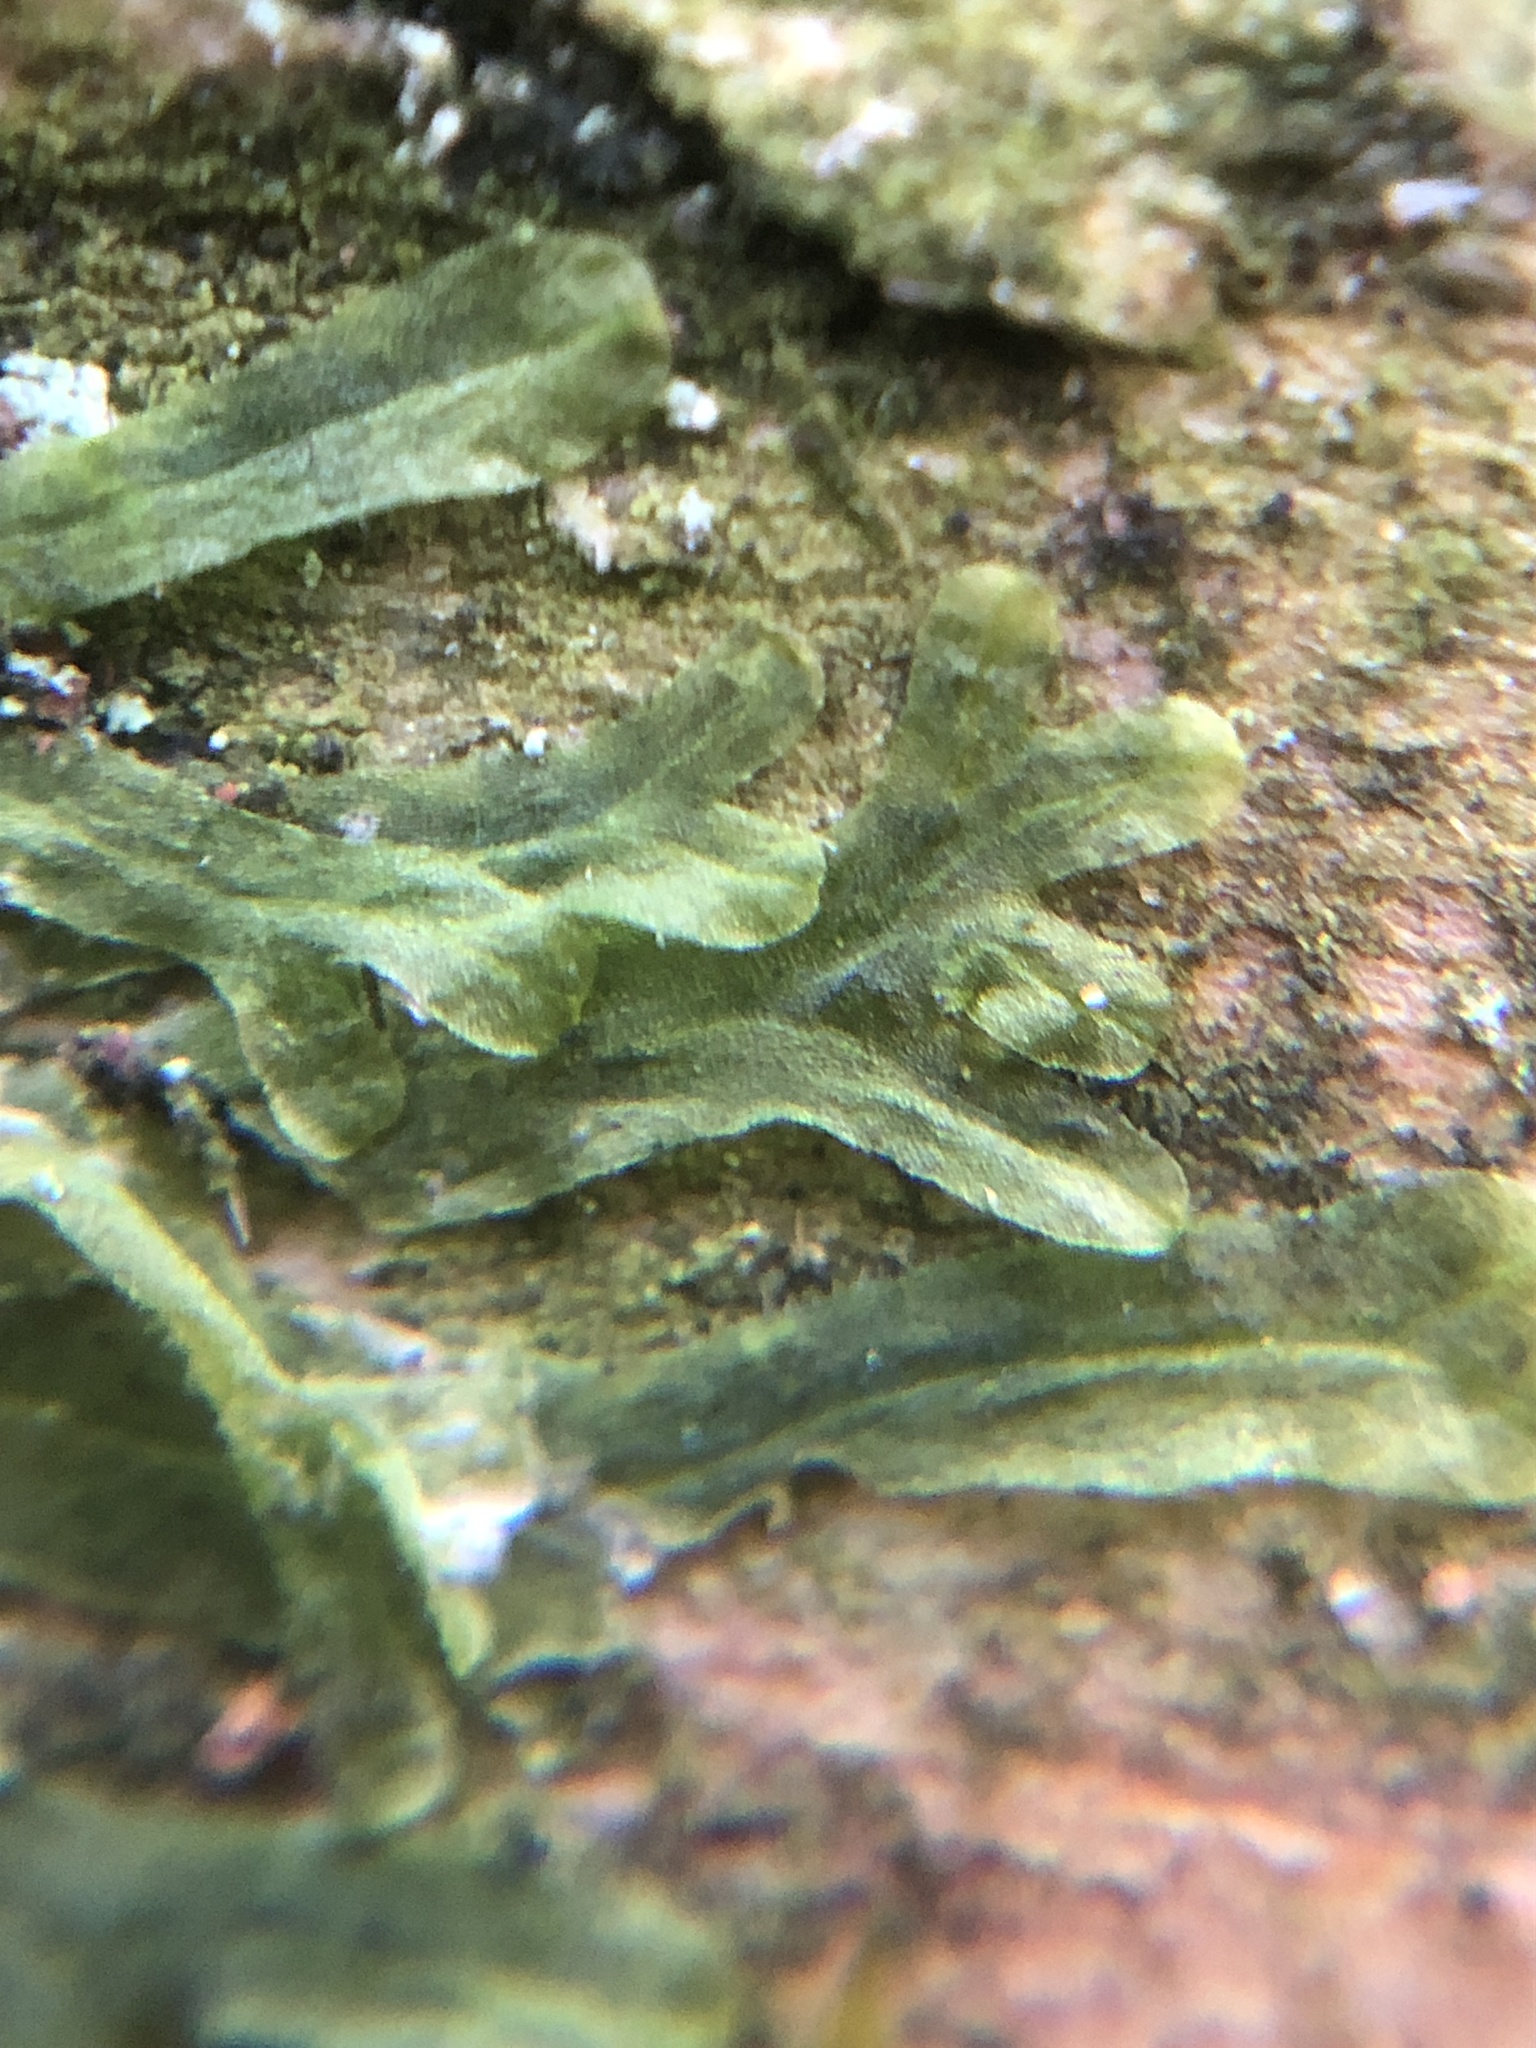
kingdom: Plantae
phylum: Marchantiophyta
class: Jungermanniopsida
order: Metzgeriales
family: Metzgeriaceae
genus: Metzgeria
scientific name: Metzgeria furcata
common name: Forked veilwort
